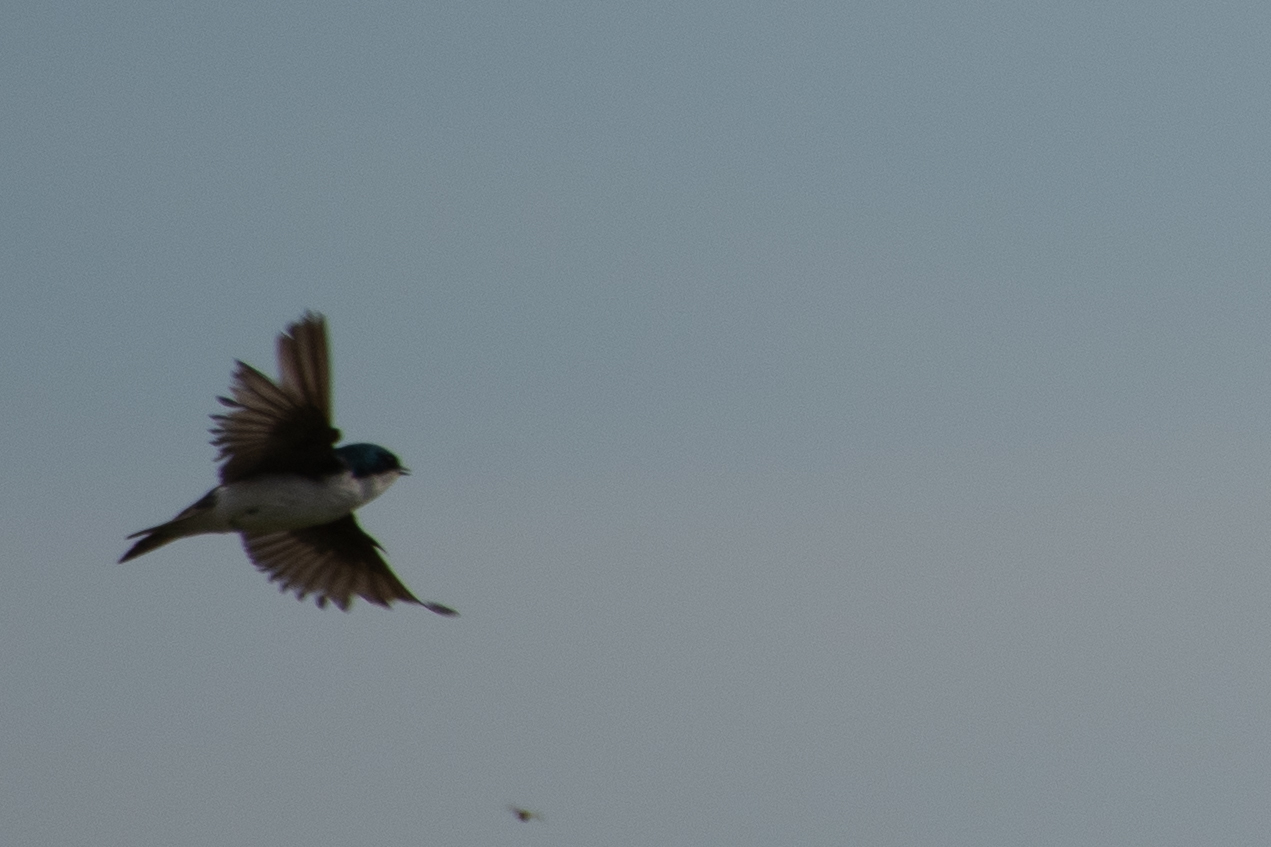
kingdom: Animalia
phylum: Chordata
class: Aves
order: Passeriformes
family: Hirundinidae
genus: Tachycineta
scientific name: Tachycineta bicolor
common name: Tree swallow
